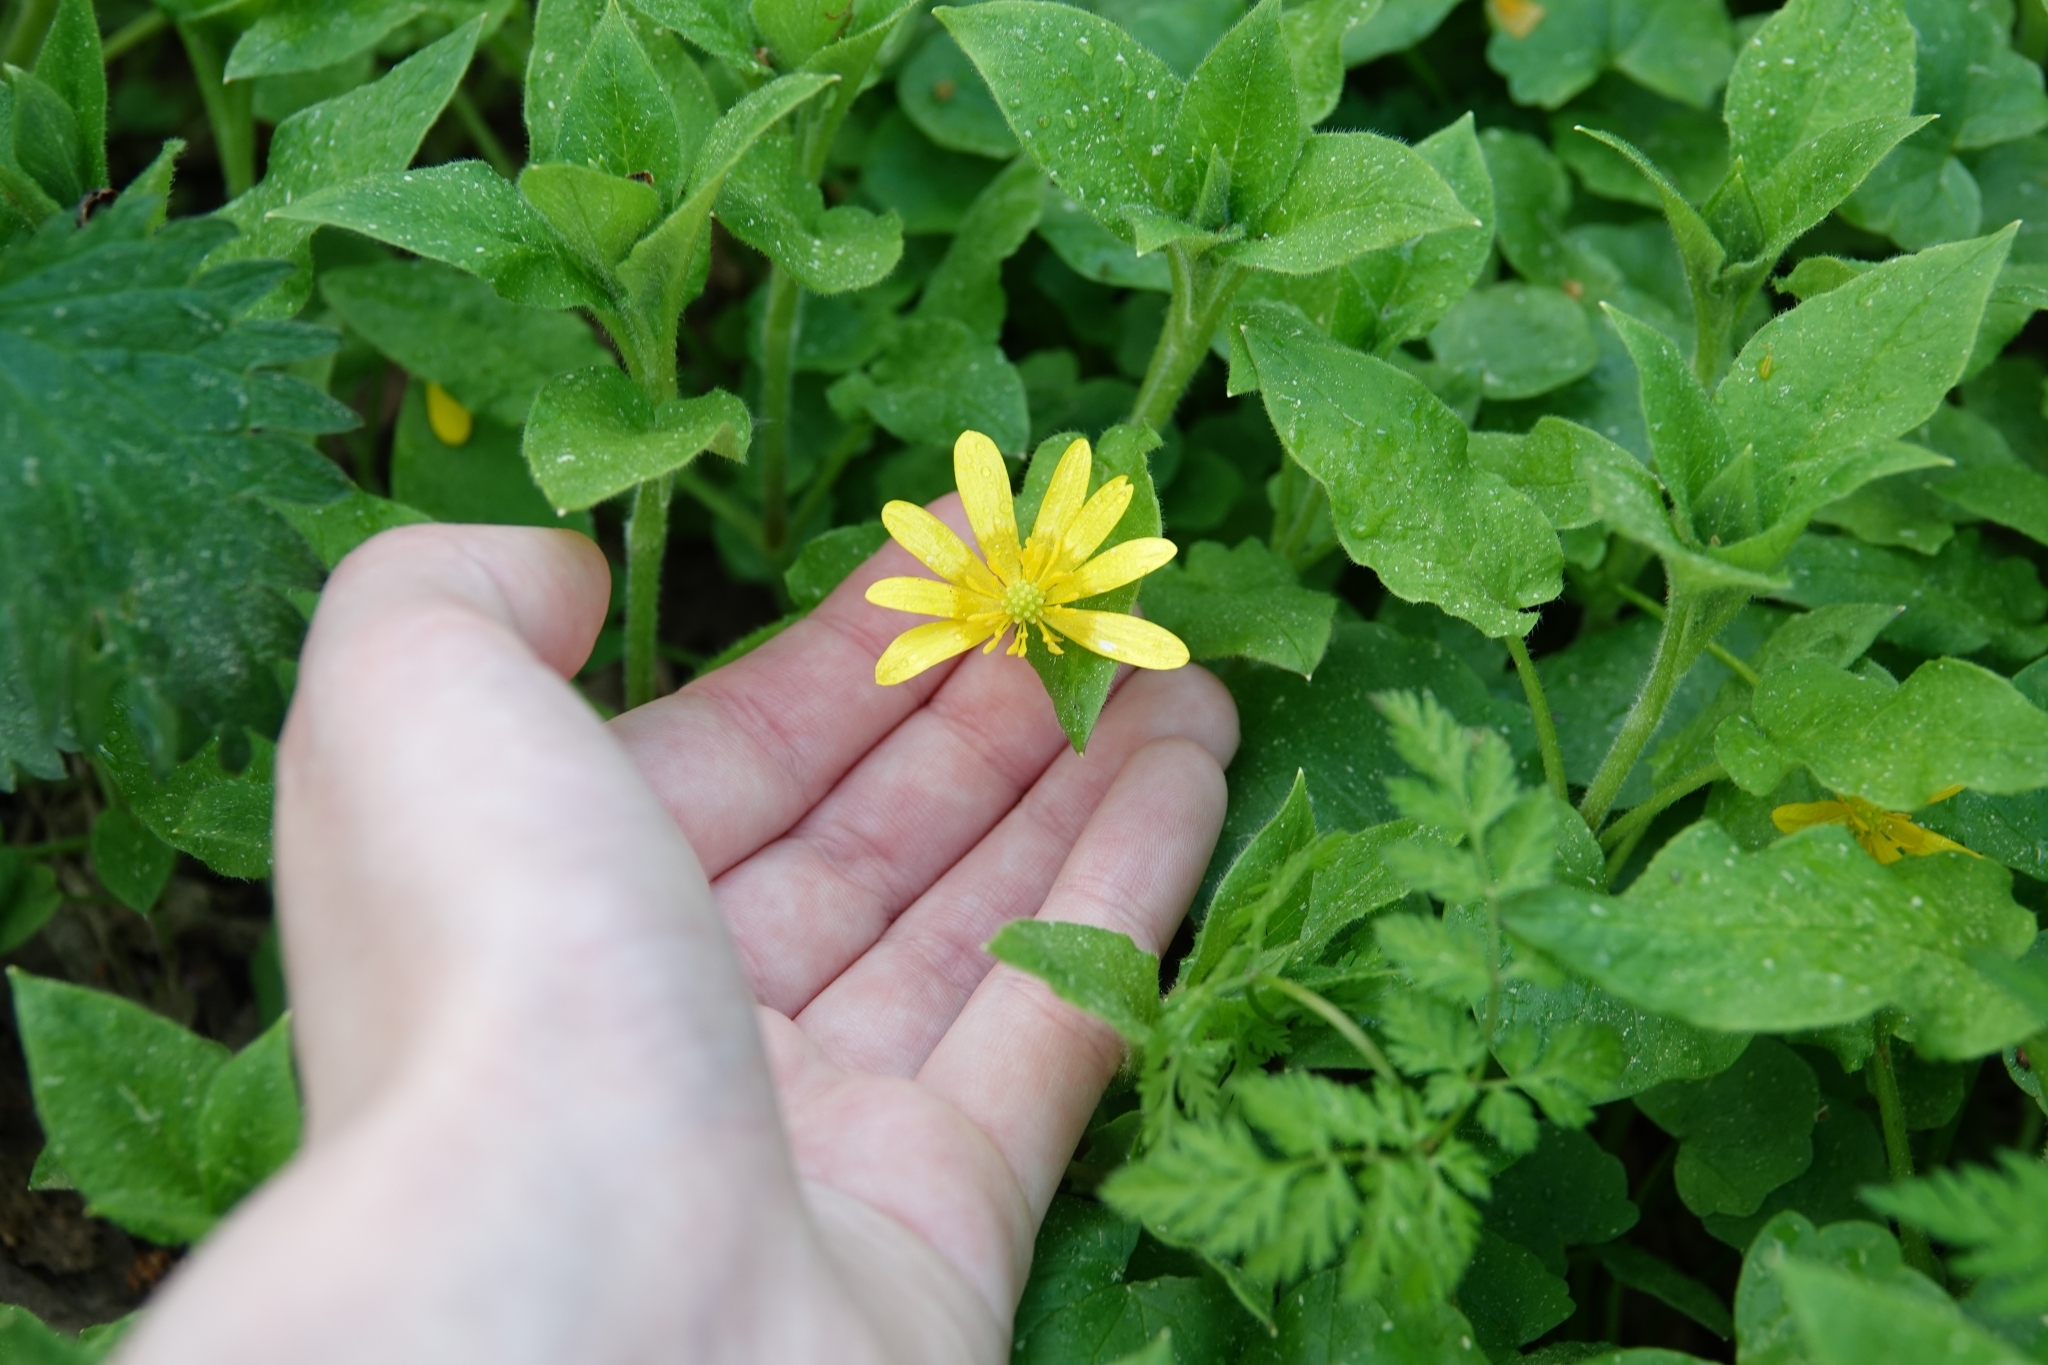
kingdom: Plantae
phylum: Tracheophyta
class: Magnoliopsida
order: Ranunculales
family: Ranunculaceae
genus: Ficaria
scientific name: Ficaria verna
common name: Lesser celandine
